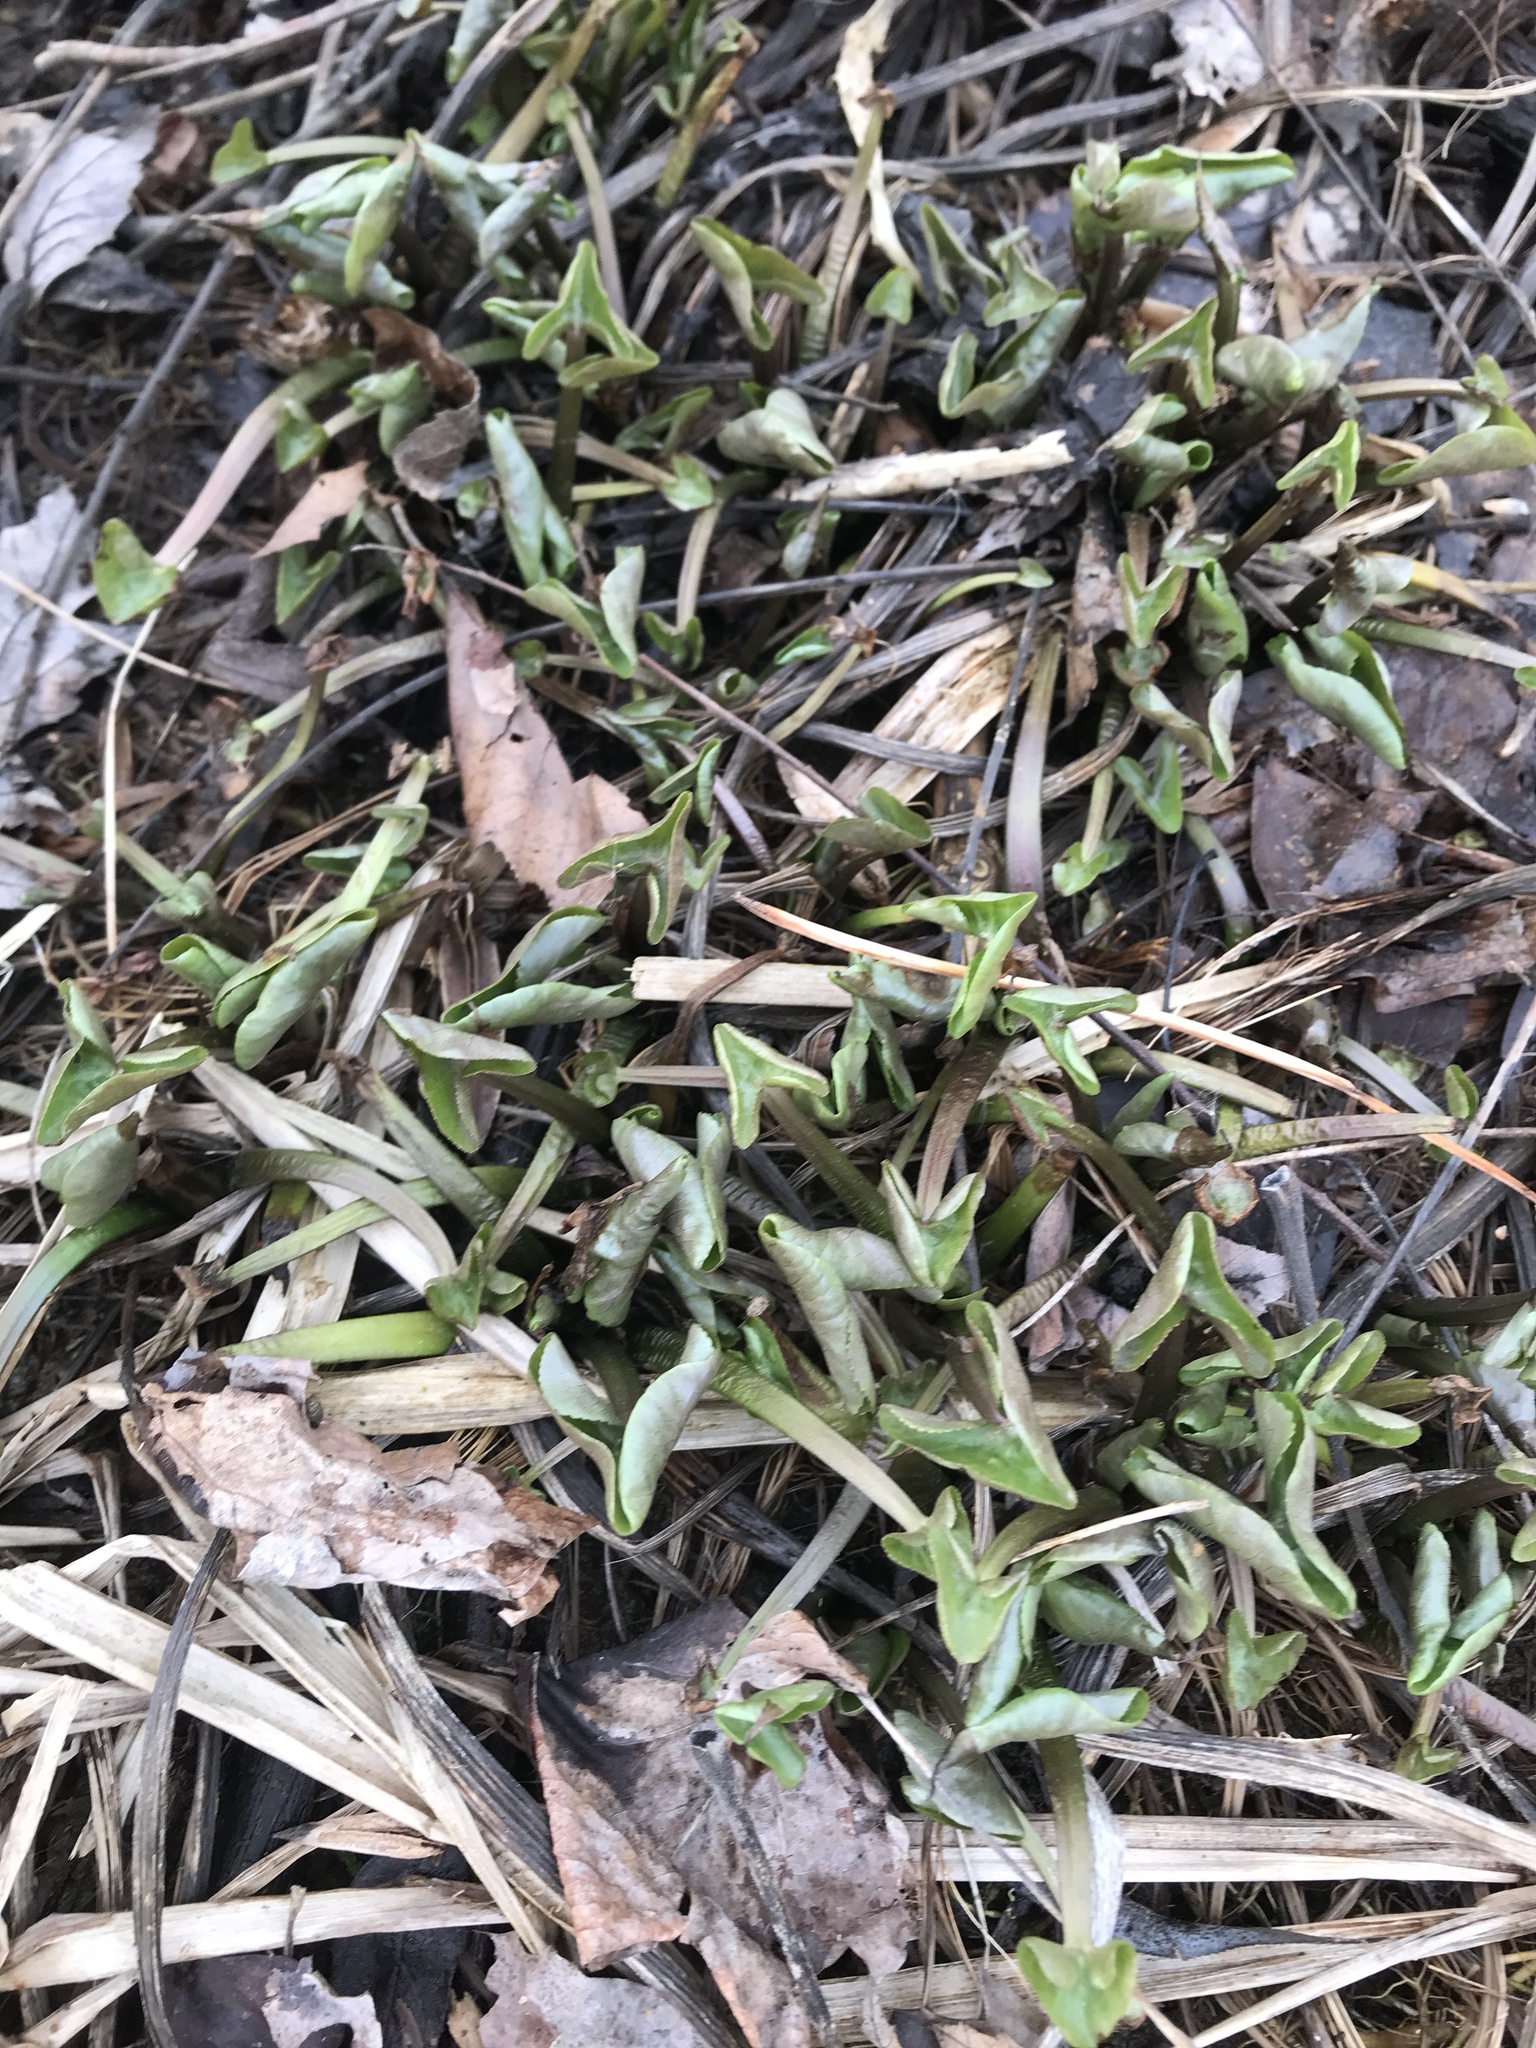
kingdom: Plantae
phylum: Tracheophyta
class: Magnoliopsida
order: Ranunculales
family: Ranunculaceae
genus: Caltha
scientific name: Caltha palustris
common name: Marsh marigold
